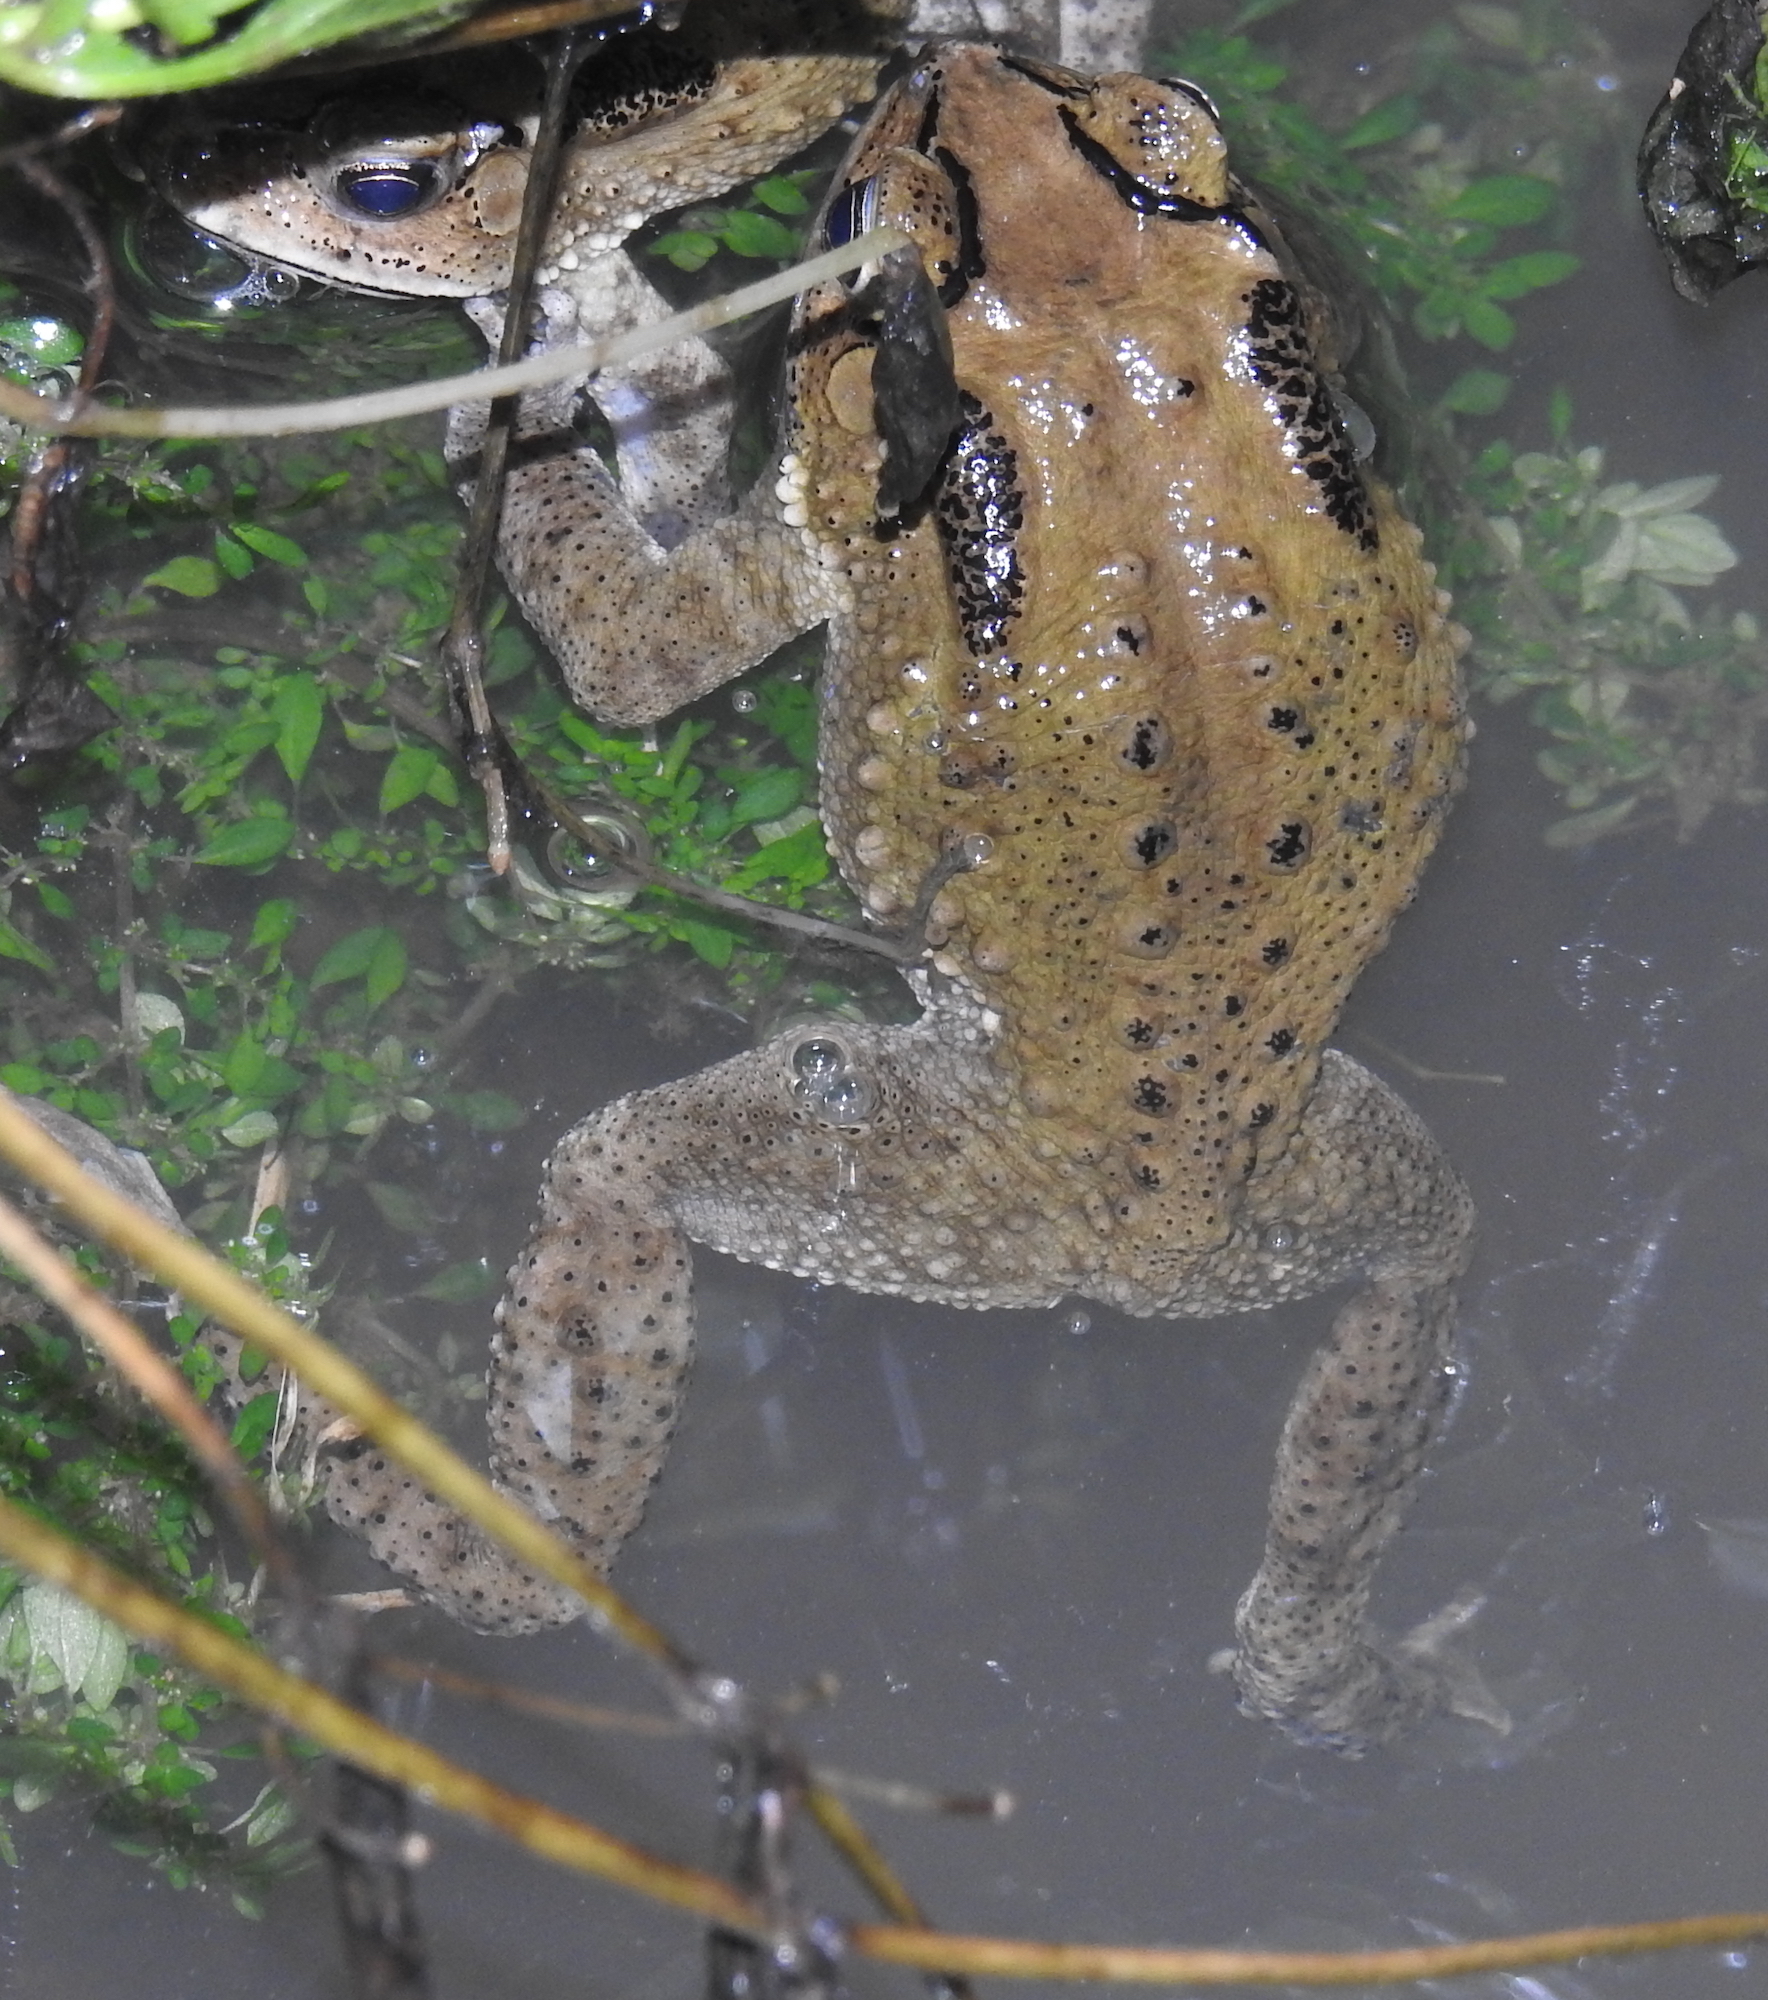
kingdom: Animalia
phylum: Chordata
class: Amphibia
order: Anura
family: Bufonidae
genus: Duttaphrynus
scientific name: Duttaphrynus melanostictus
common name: Common sunda toad
